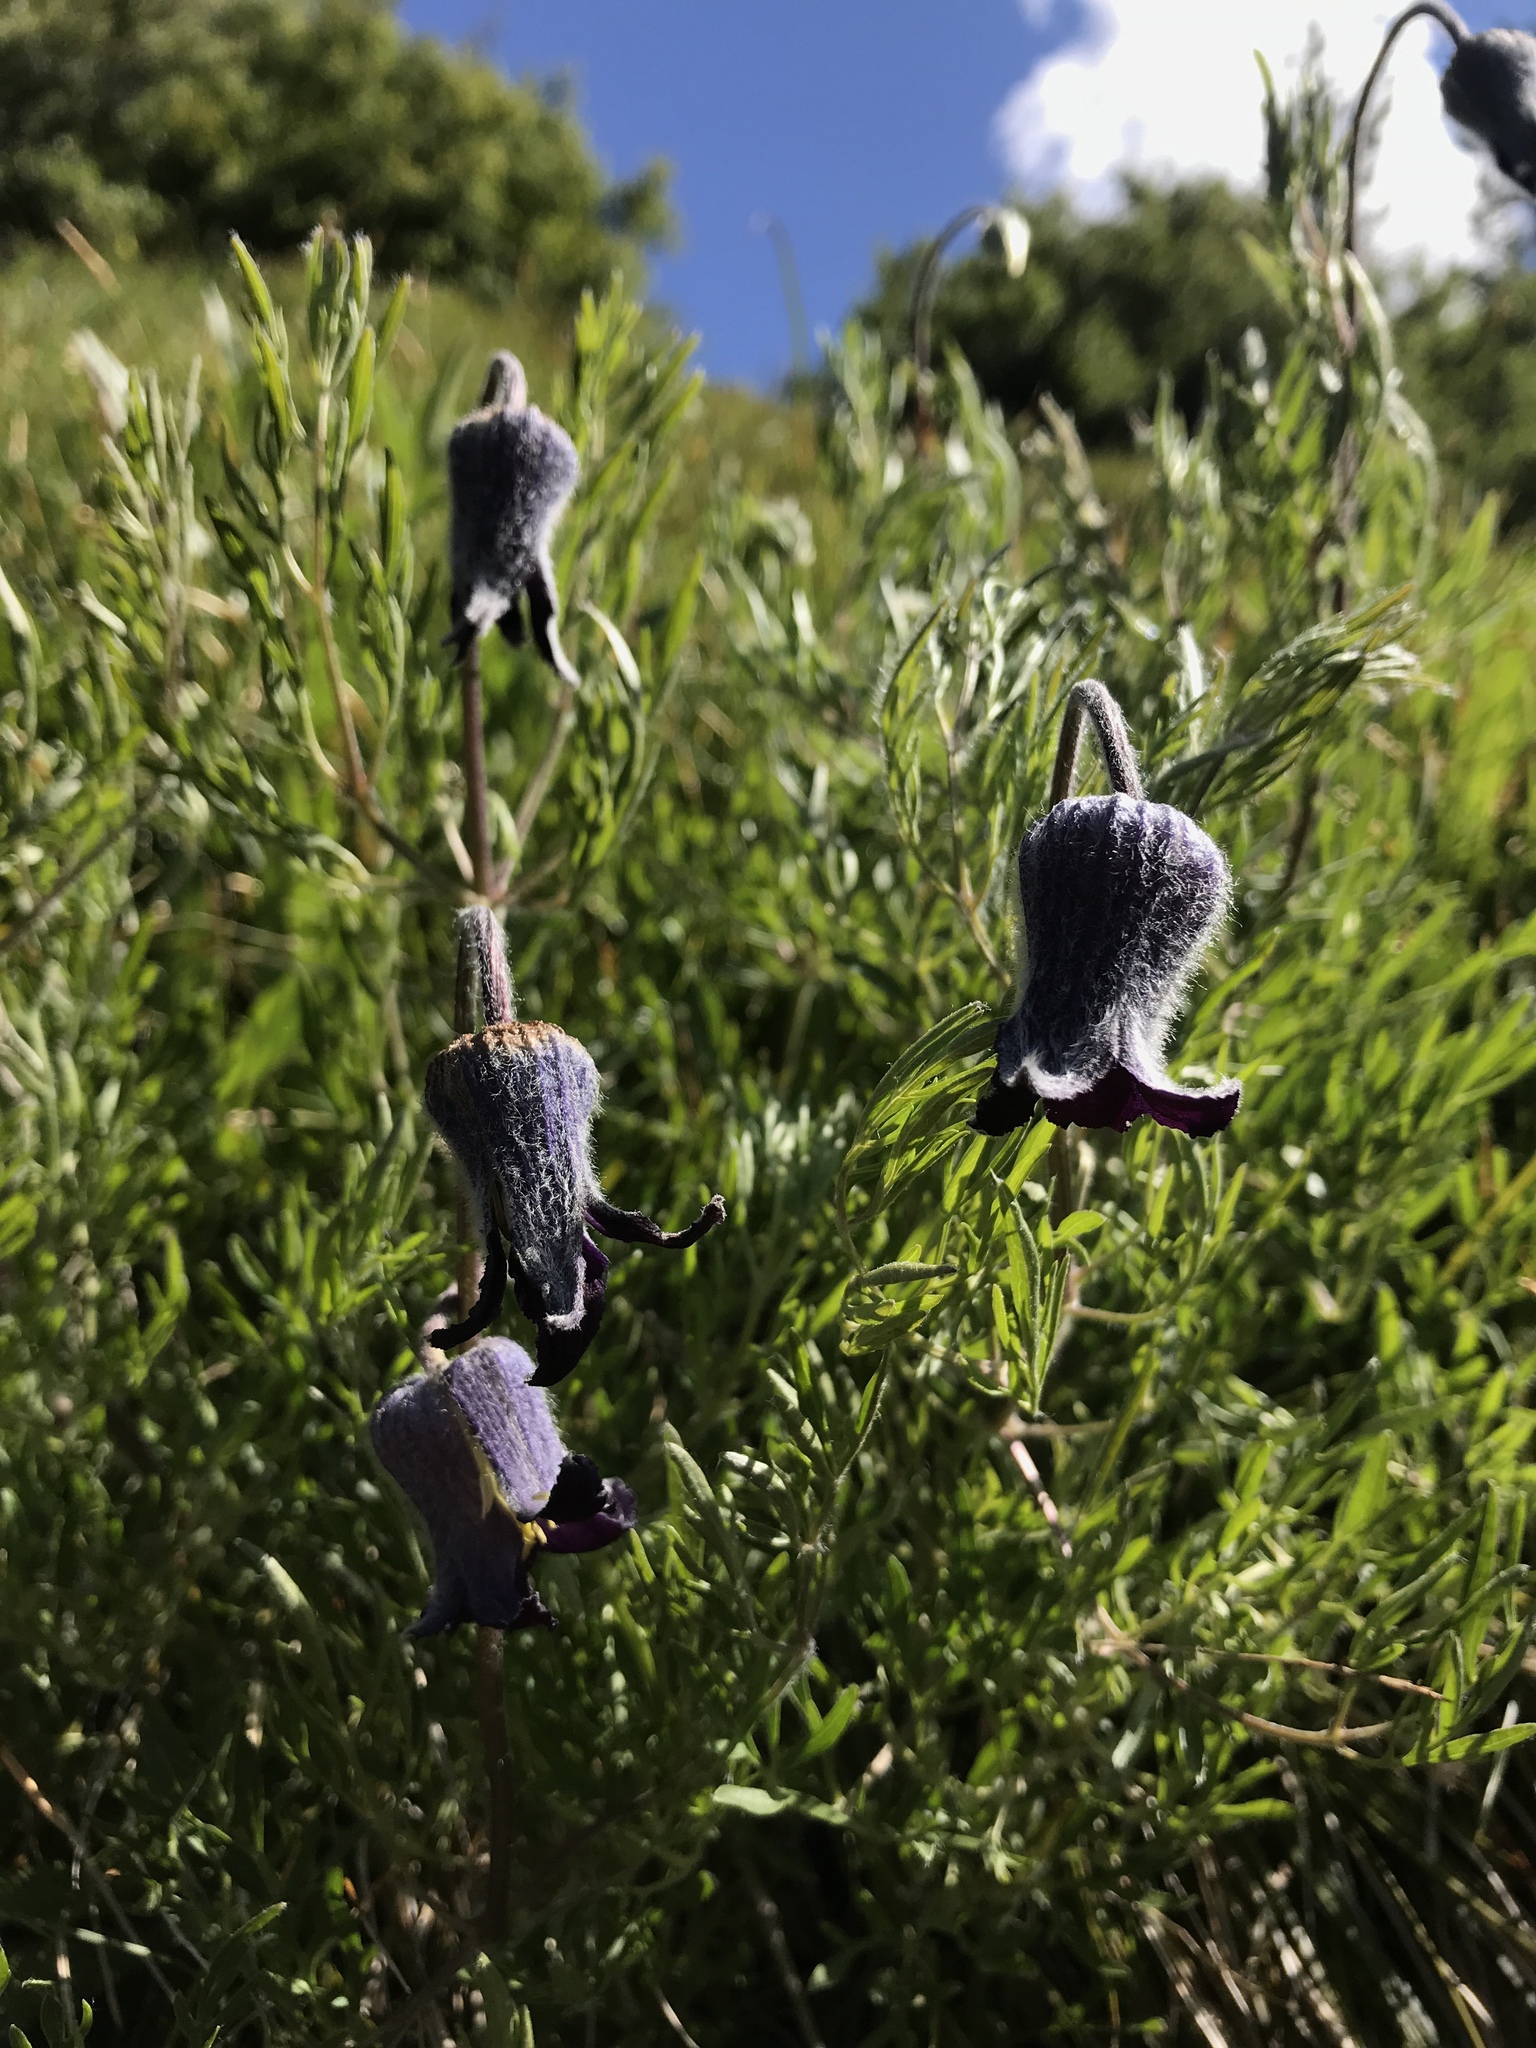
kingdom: Plantae
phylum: Tracheophyta
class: Magnoliopsida
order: Ranunculales
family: Ranunculaceae
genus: Clematis
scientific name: Clematis hirsutissima
